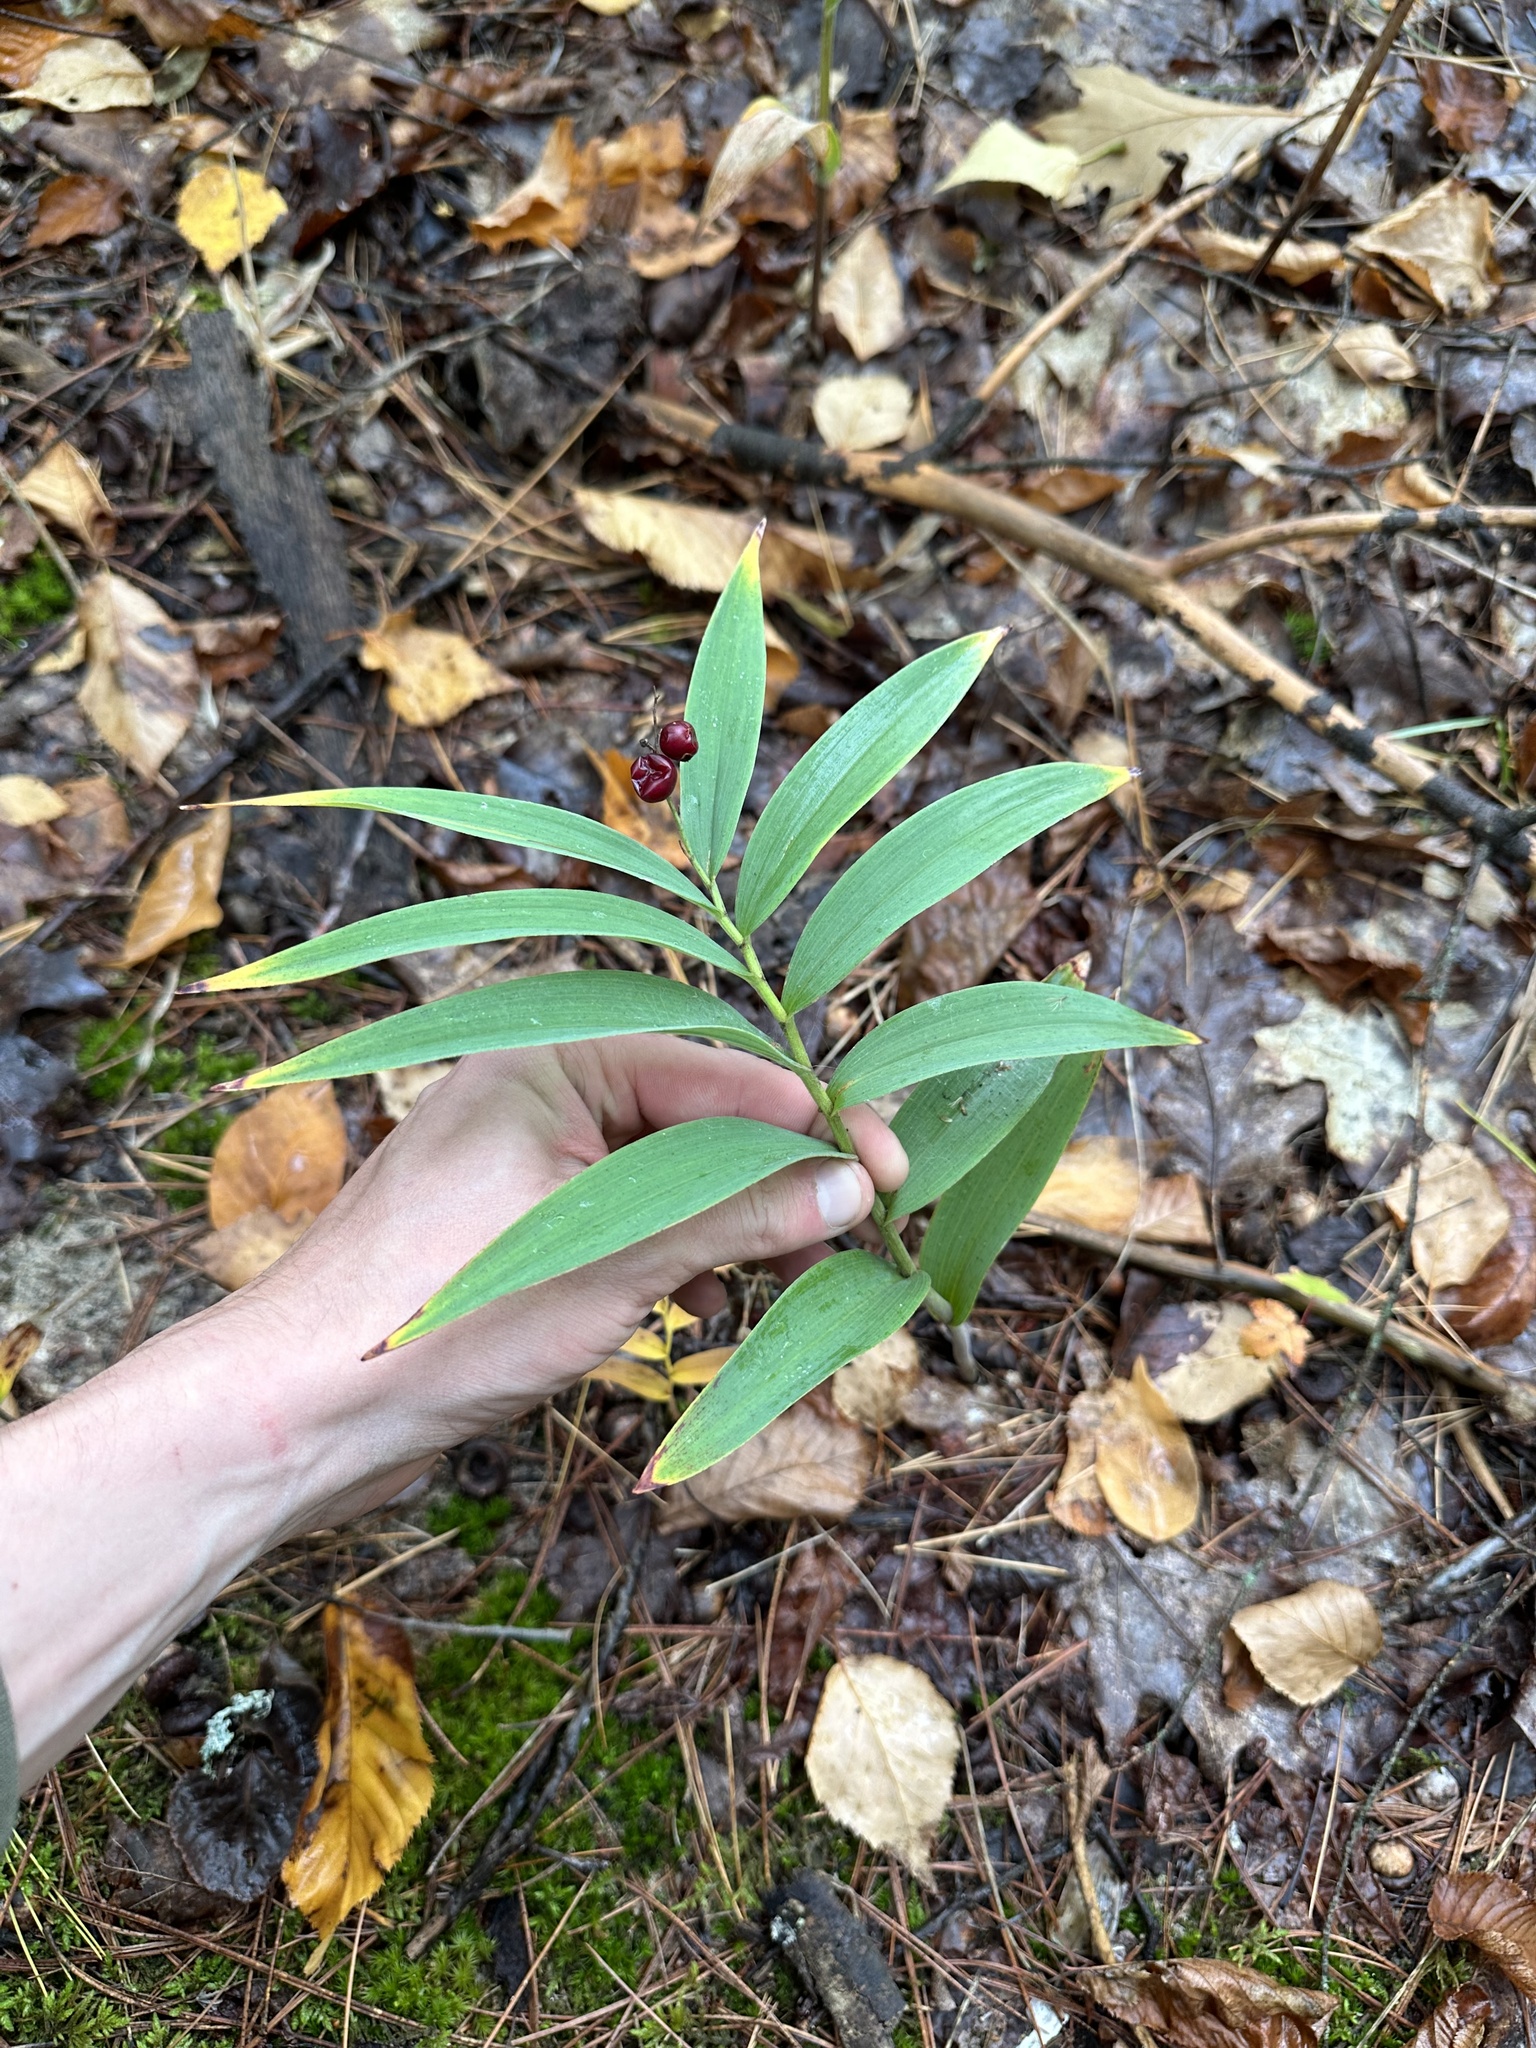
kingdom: Plantae
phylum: Tracheophyta
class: Liliopsida
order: Asparagales
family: Asparagaceae
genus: Maianthemum
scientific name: Maianthemum stellatum
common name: Little false solomon's seal
